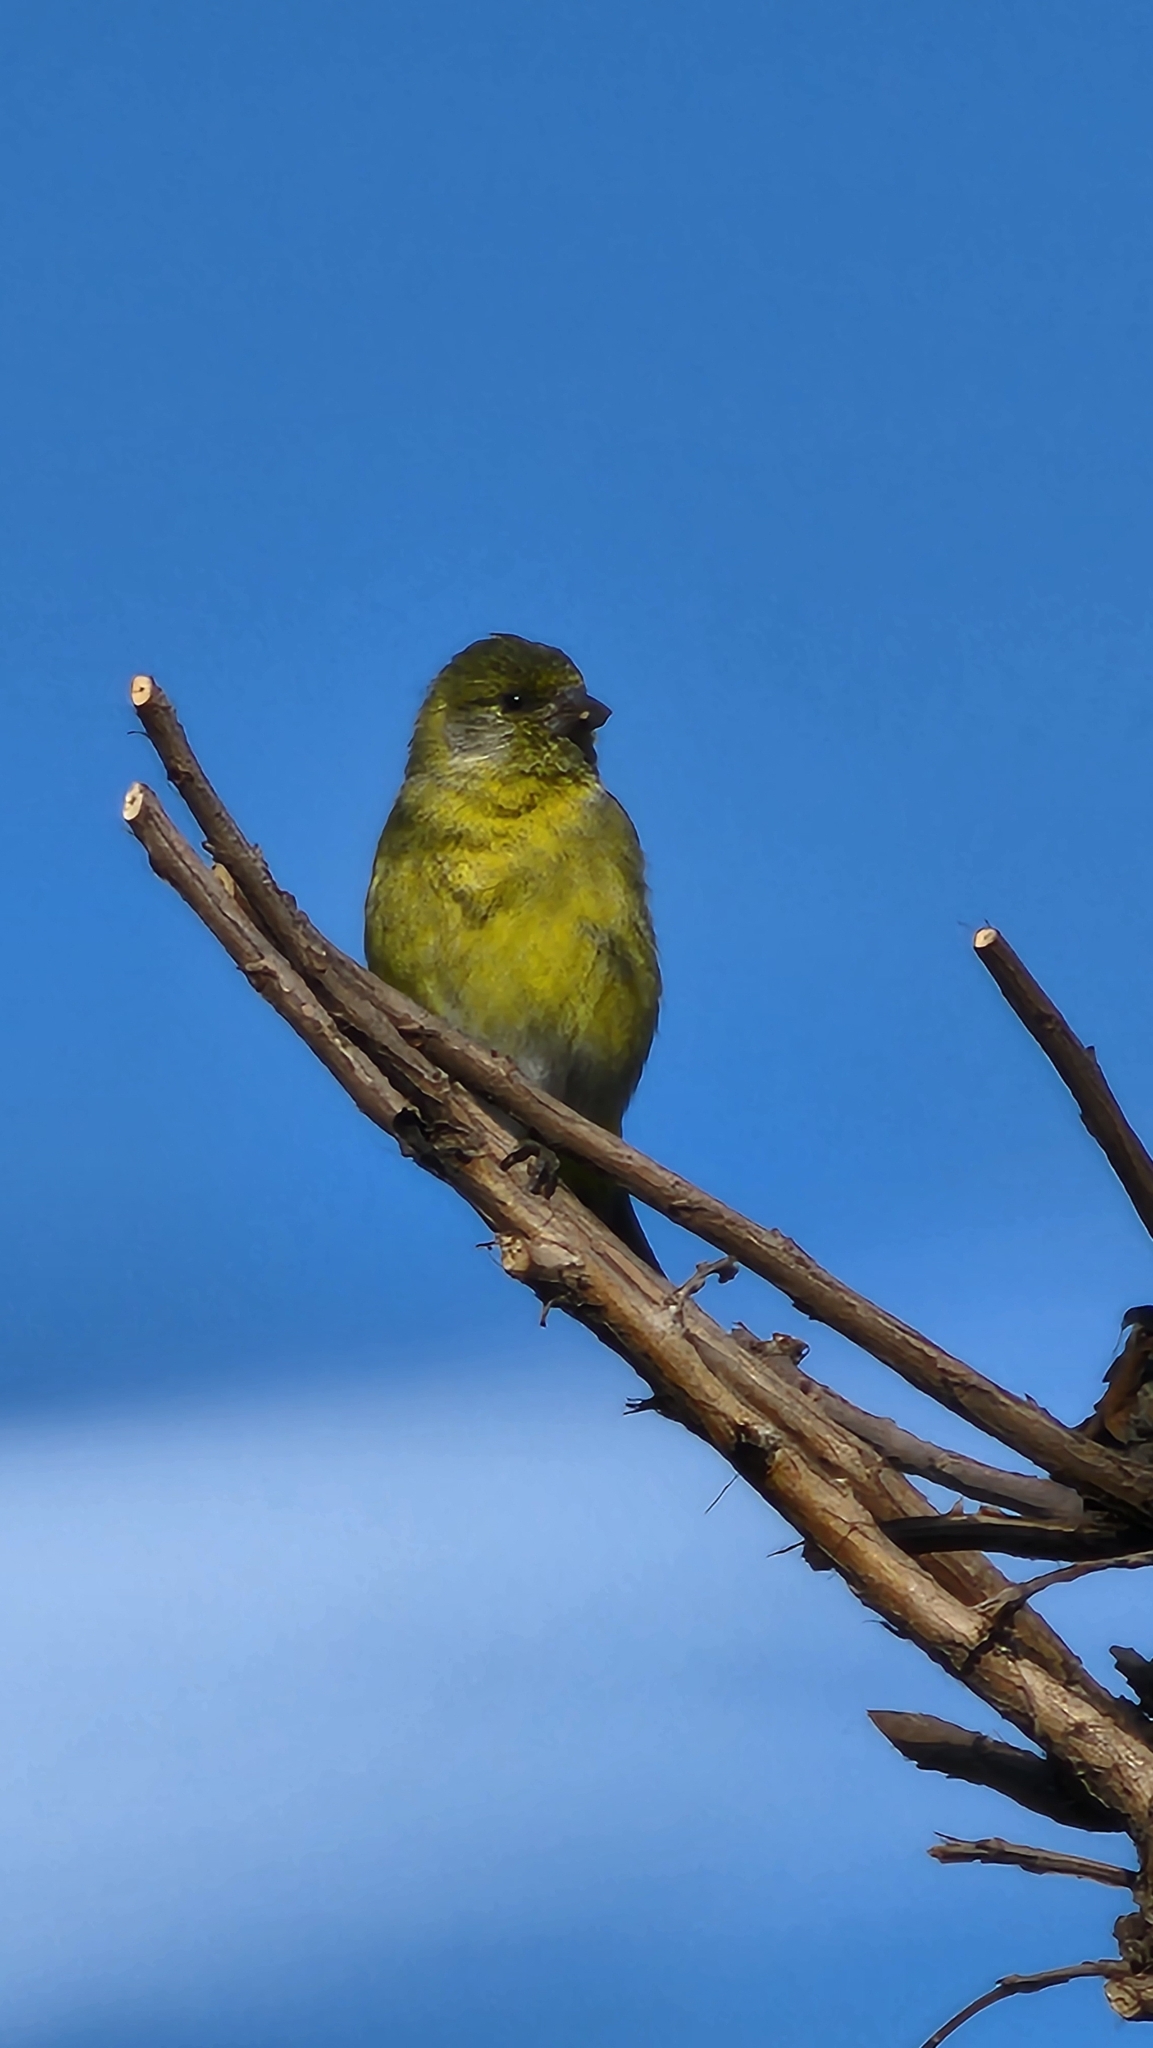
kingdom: Animalia
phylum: Chordata
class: Aves
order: Passeriformes
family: Fringillidae
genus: Spinus
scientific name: Spinus magellanicus
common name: Hooded siskin
